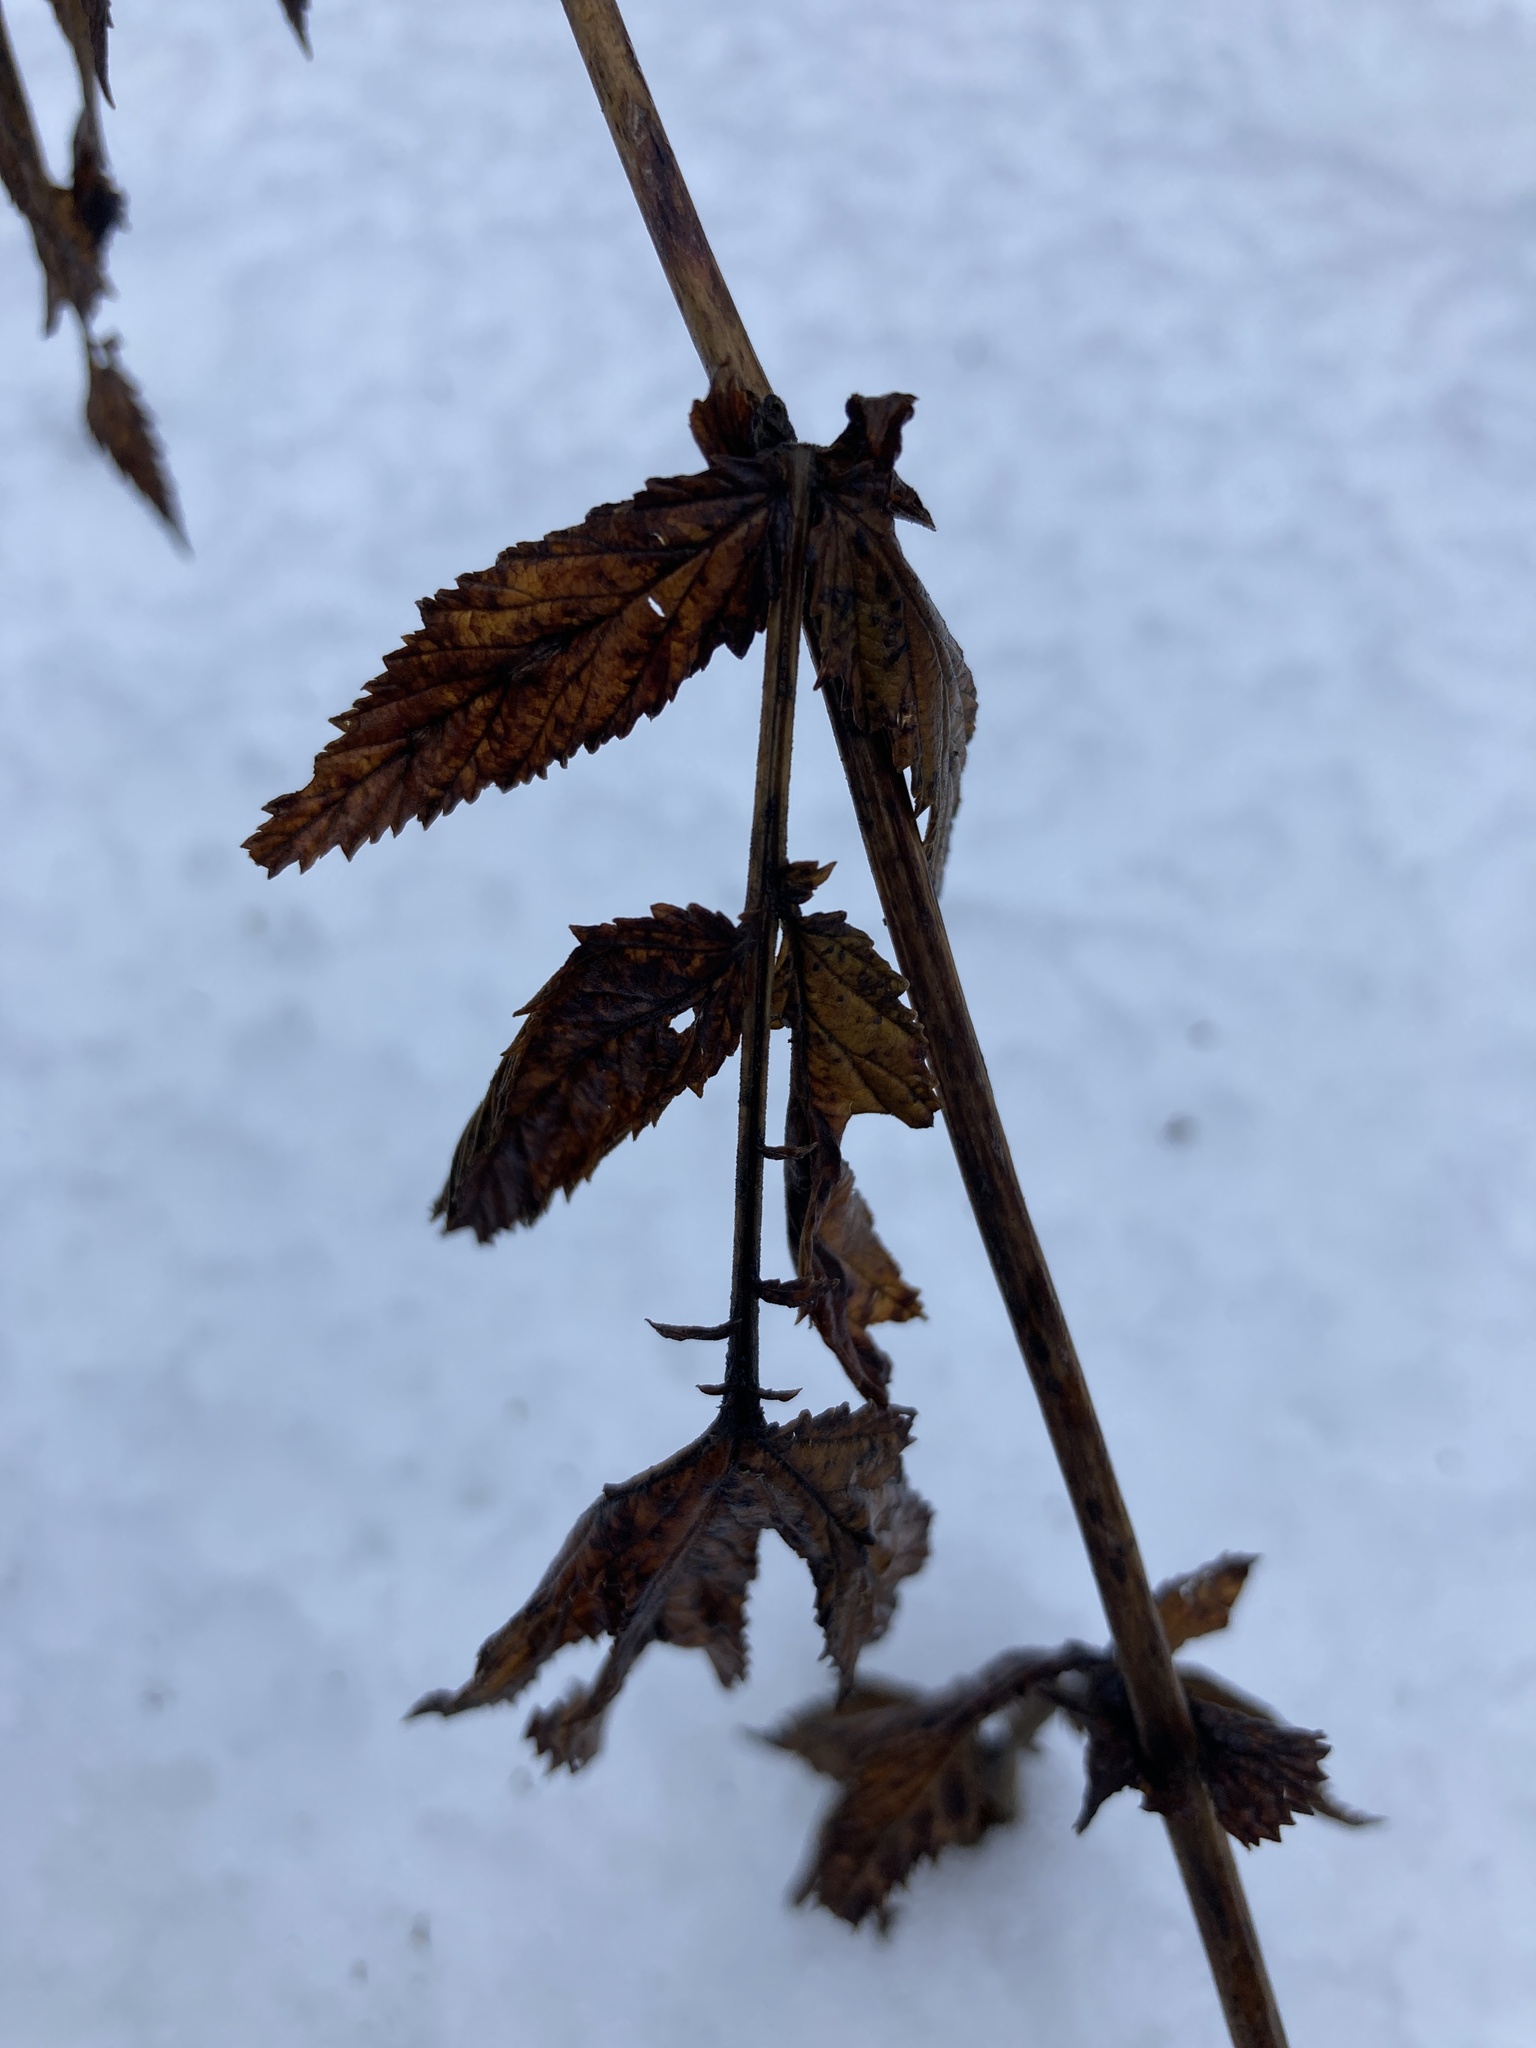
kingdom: Plantae
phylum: Tracheophyta
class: Magnoliopsida
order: Rosales
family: Rosaceae
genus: Filipendula
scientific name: Filipendula ulmaria
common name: Meadowsweet
